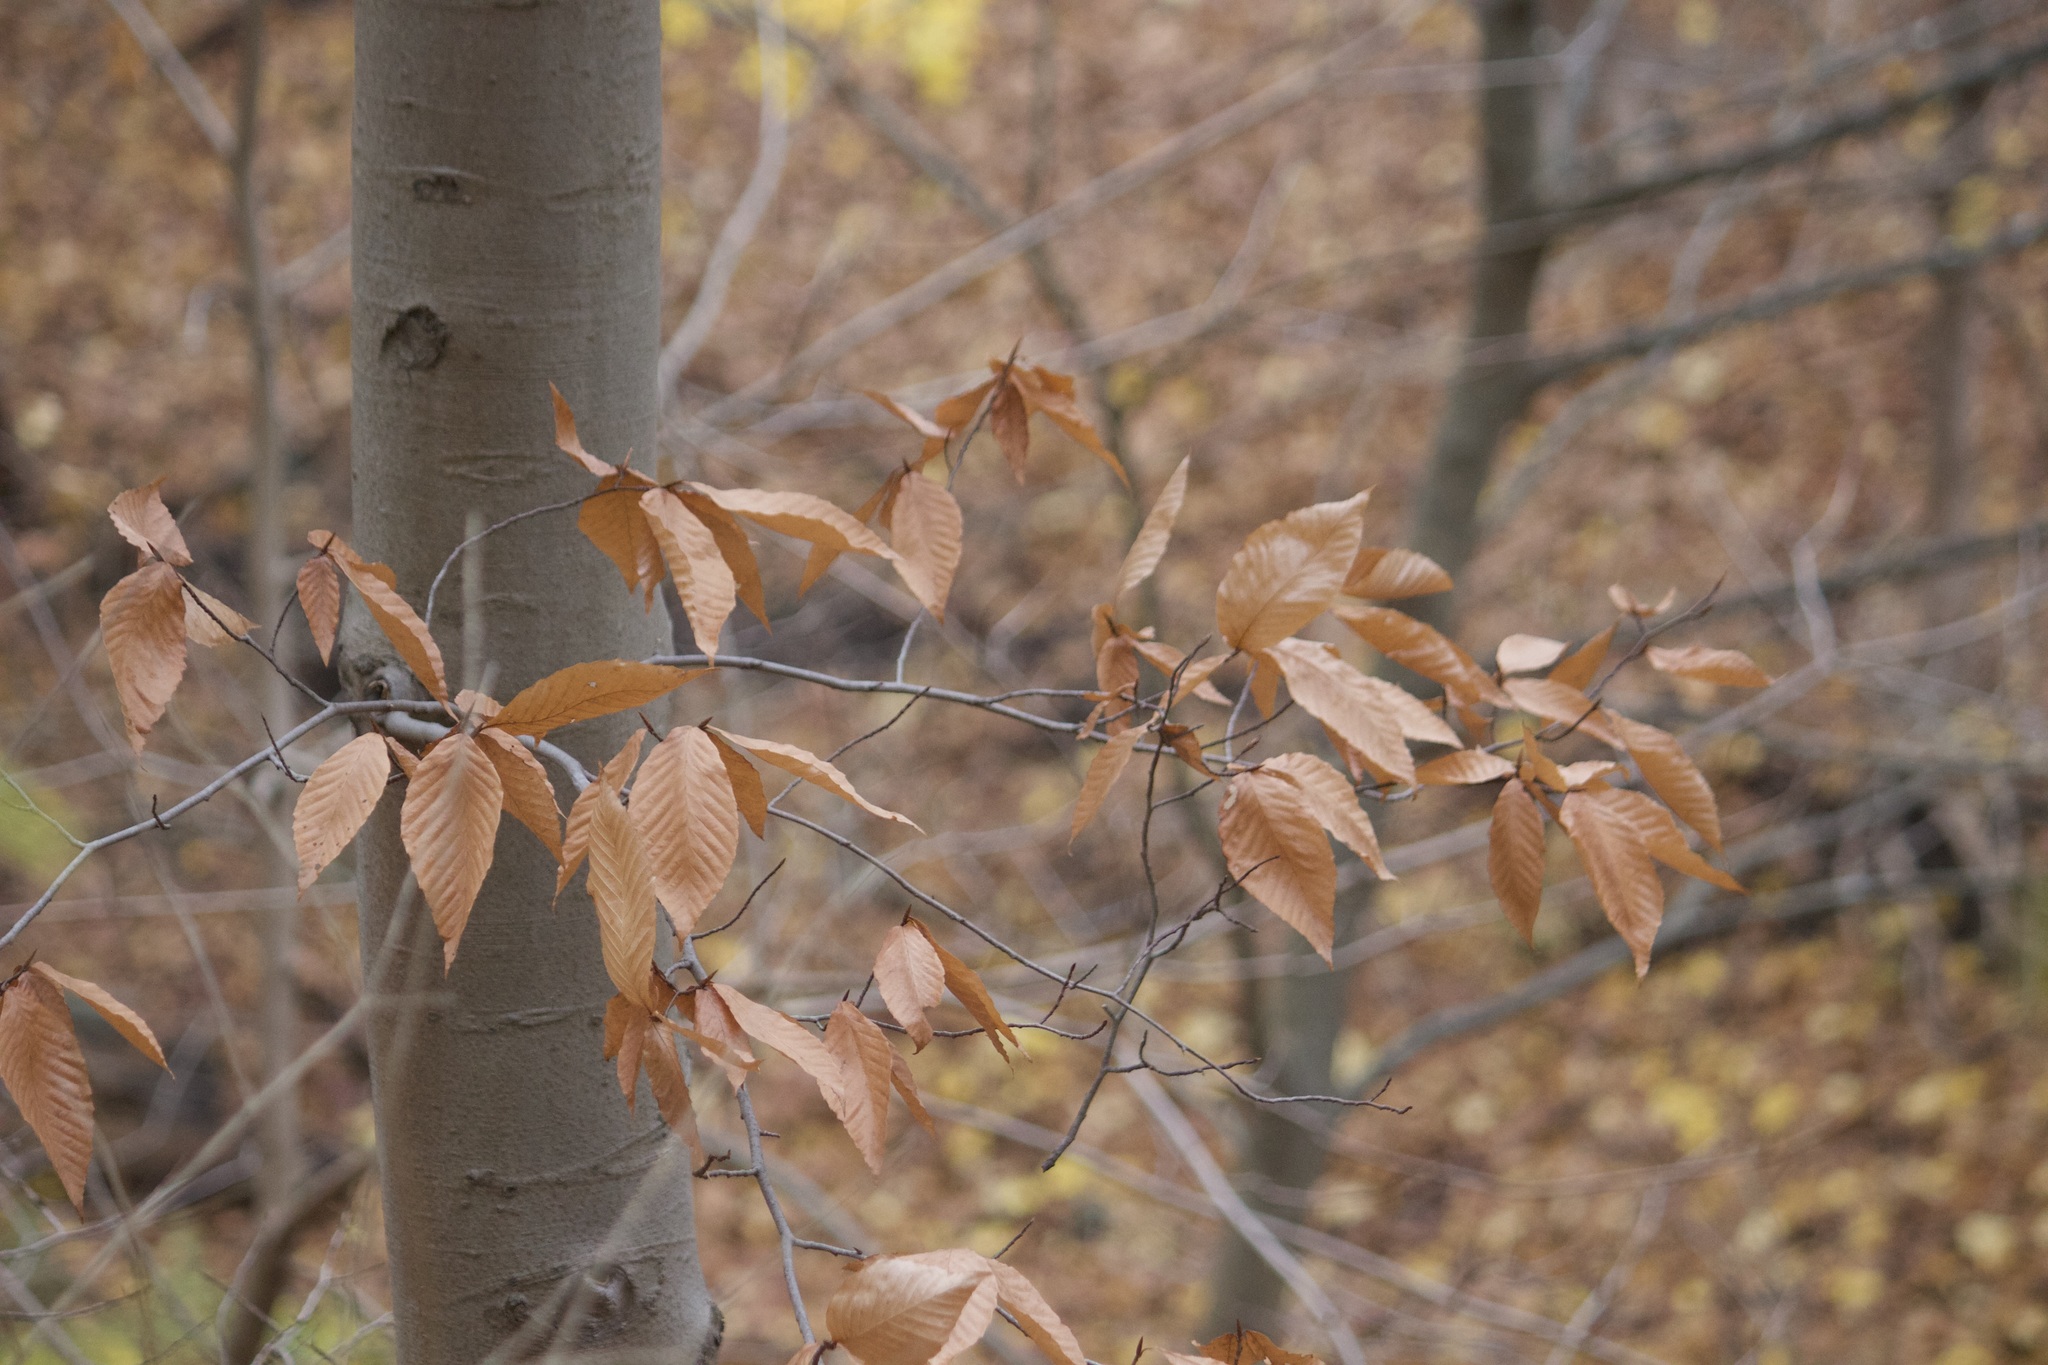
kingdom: Plantae
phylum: Tracheophyta
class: Magnoliopsida
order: Fagales
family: Fagaceae
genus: Fagus
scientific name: Fagus grandifolia
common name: American beech
